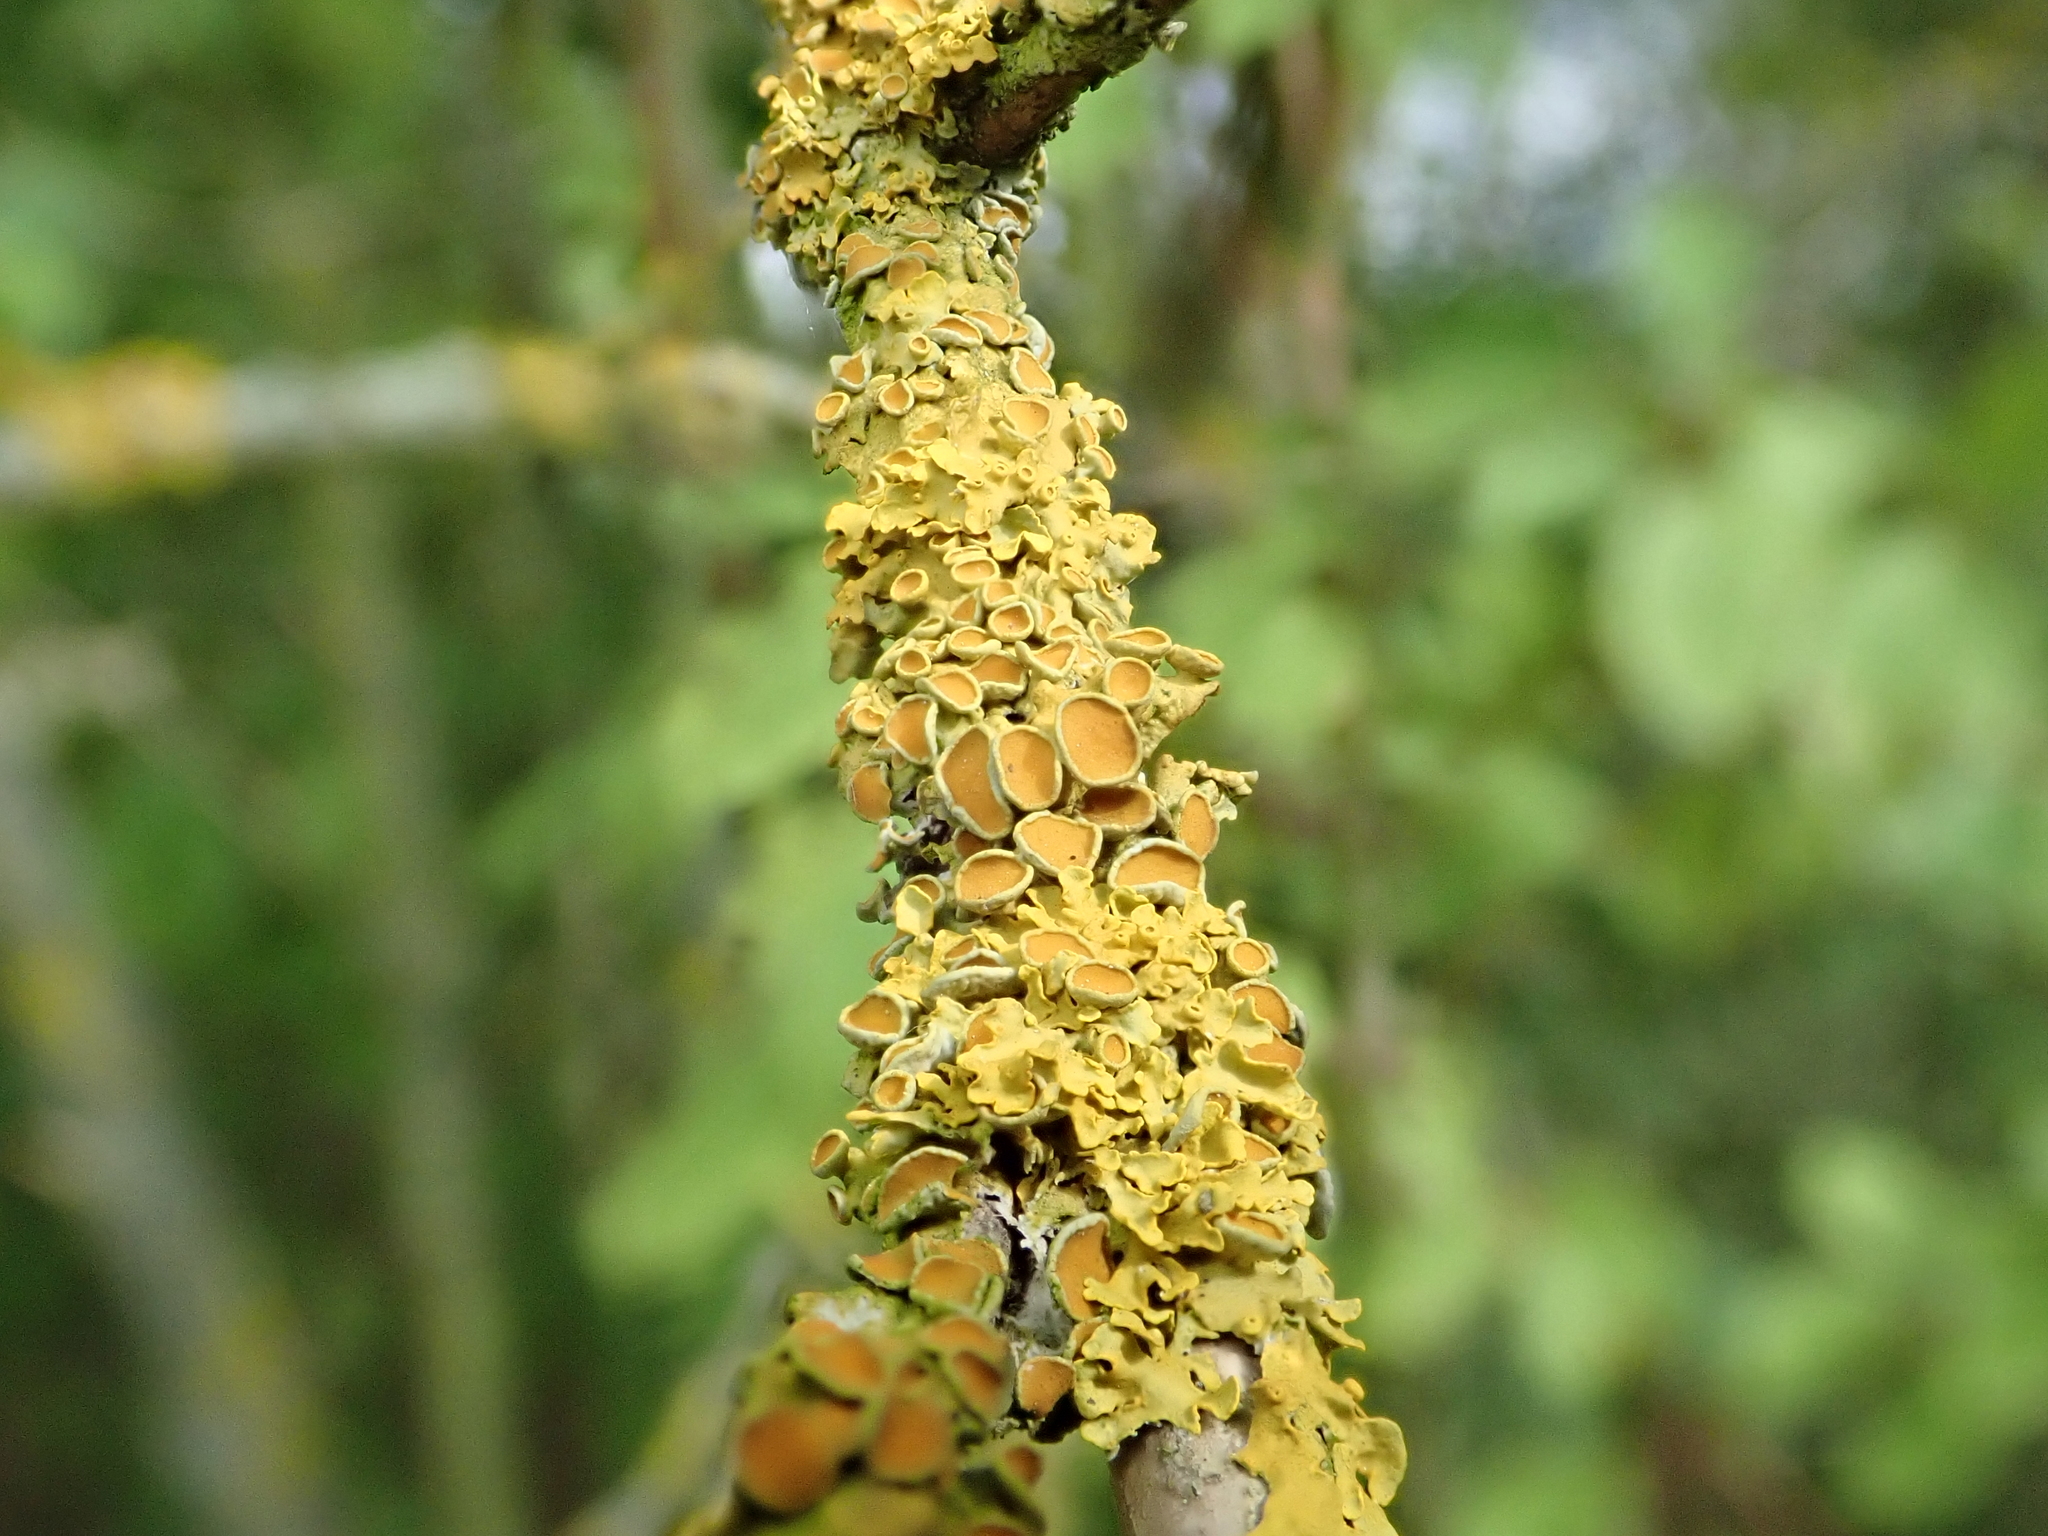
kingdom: Fungi
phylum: Ascomycota
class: Lecanoromycetes
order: Teloschistales
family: Teloschistaceae
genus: Xanthoria
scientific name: Xanthoria parietina
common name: Common orange lichen
